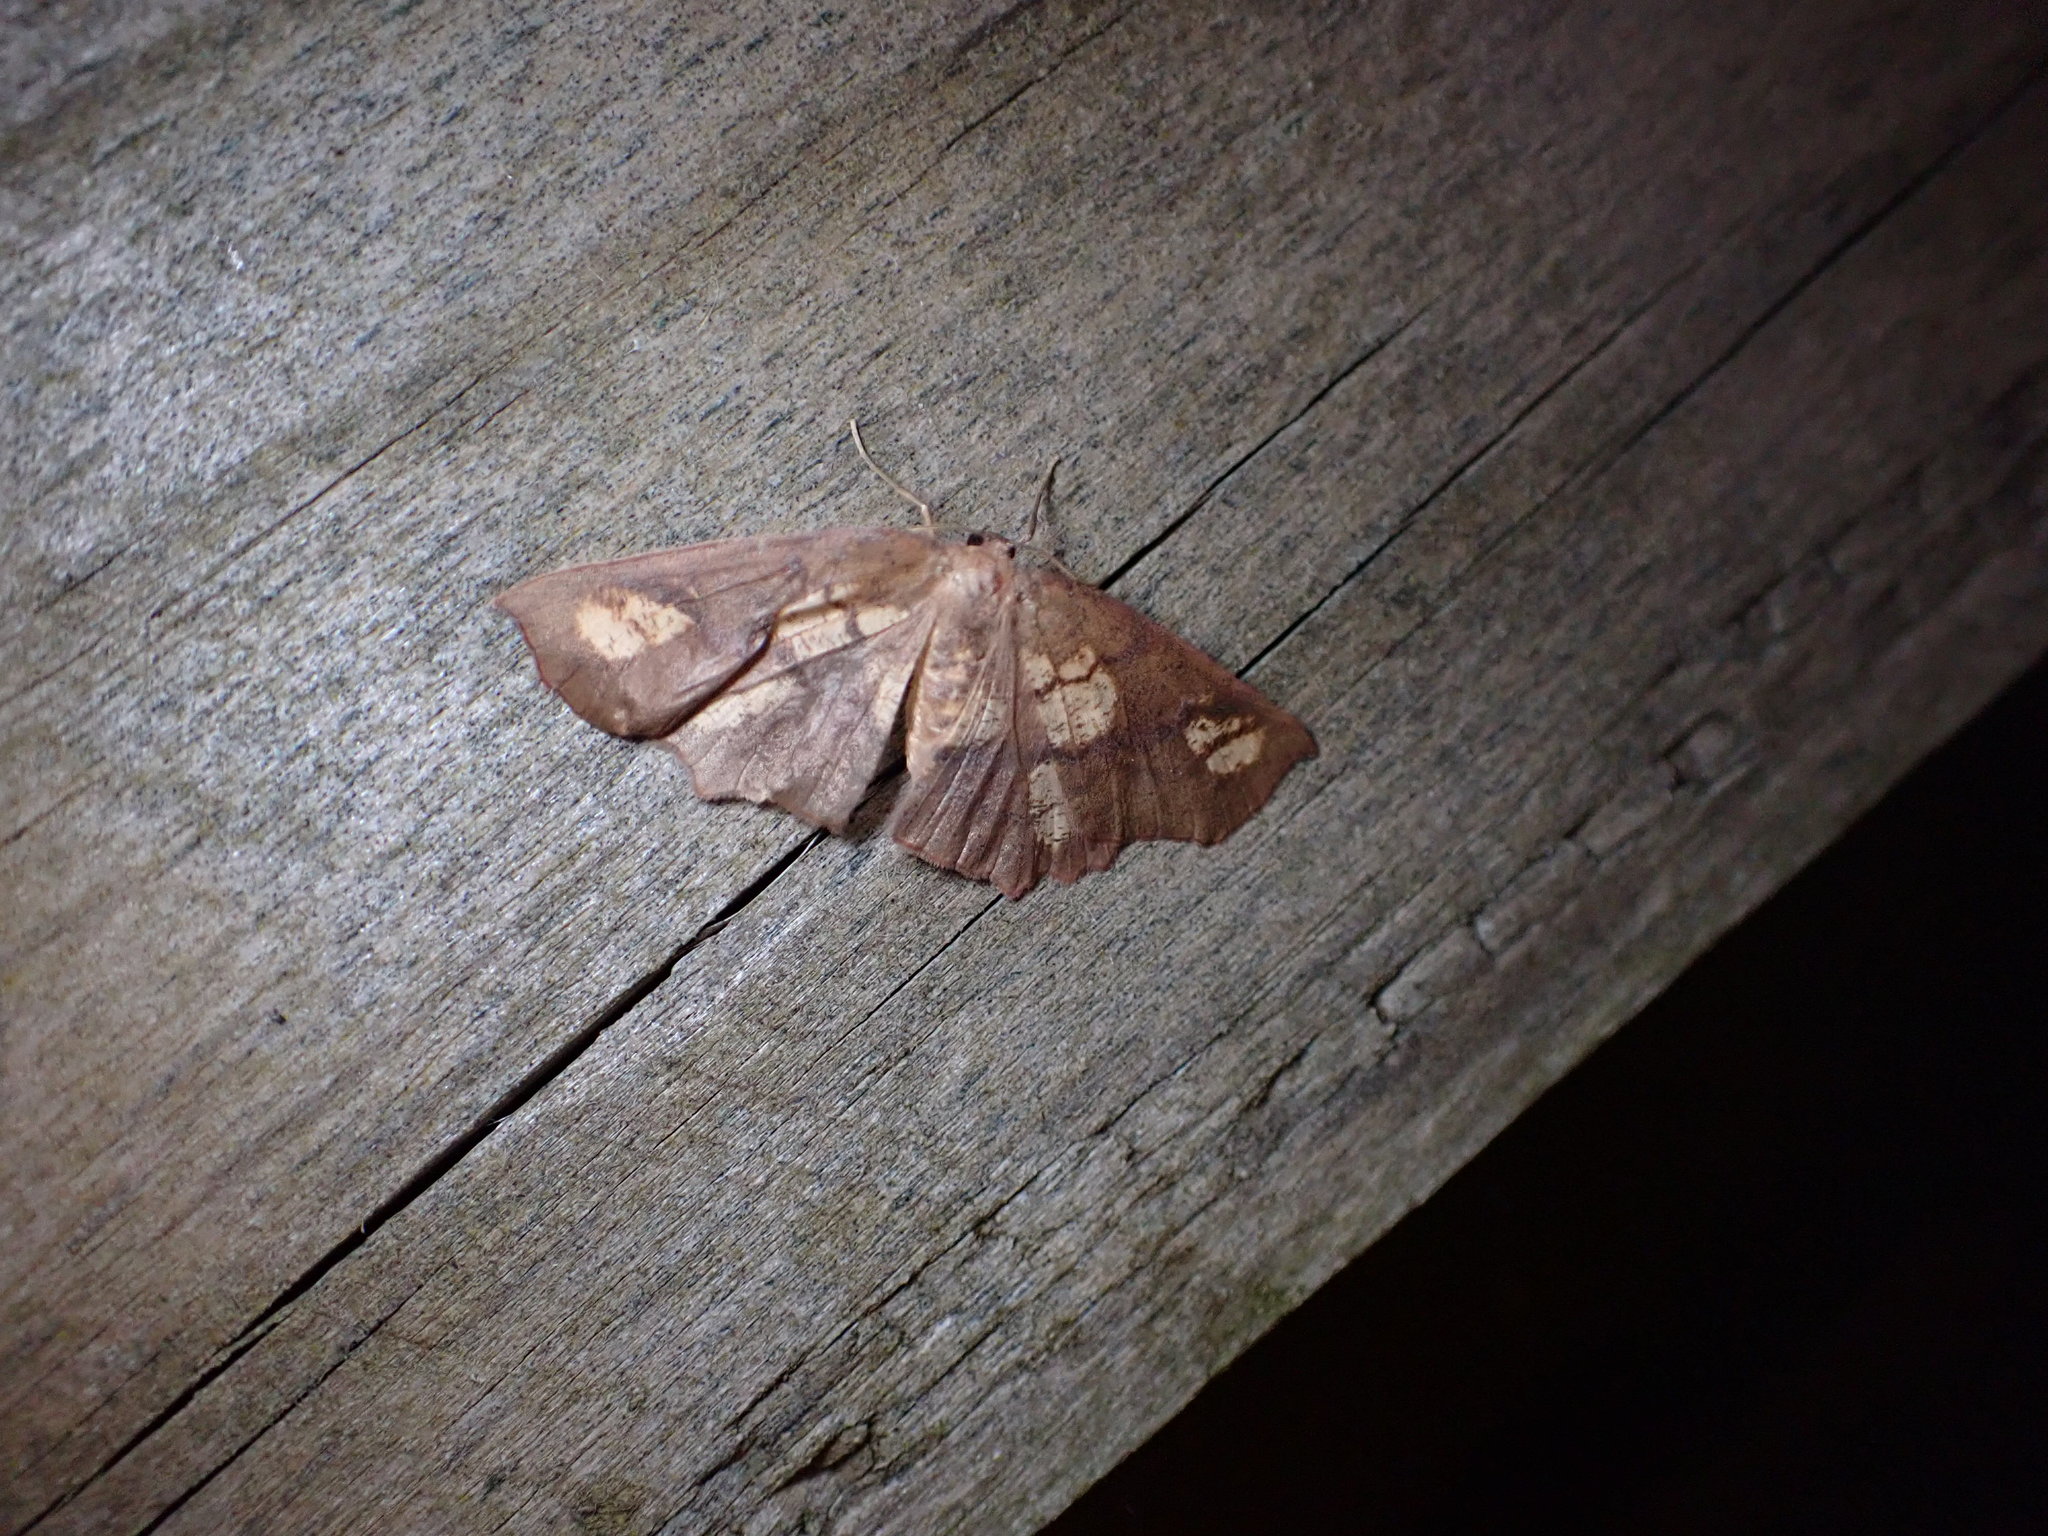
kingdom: Animalia
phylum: Arthropoda
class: Insecta
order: Lepidoptera
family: Geometridae
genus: Xyridacma
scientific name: Xyridacma ustaria
